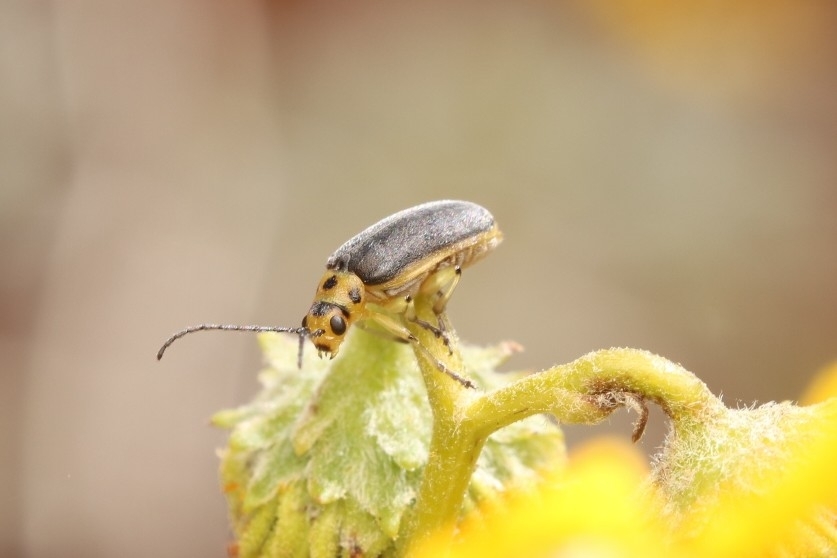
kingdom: Animalia
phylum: Arthropoda
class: Insecta
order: Coleoptera
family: Chrysomelidae
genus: Trirhabda
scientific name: Trirhabda geminata
